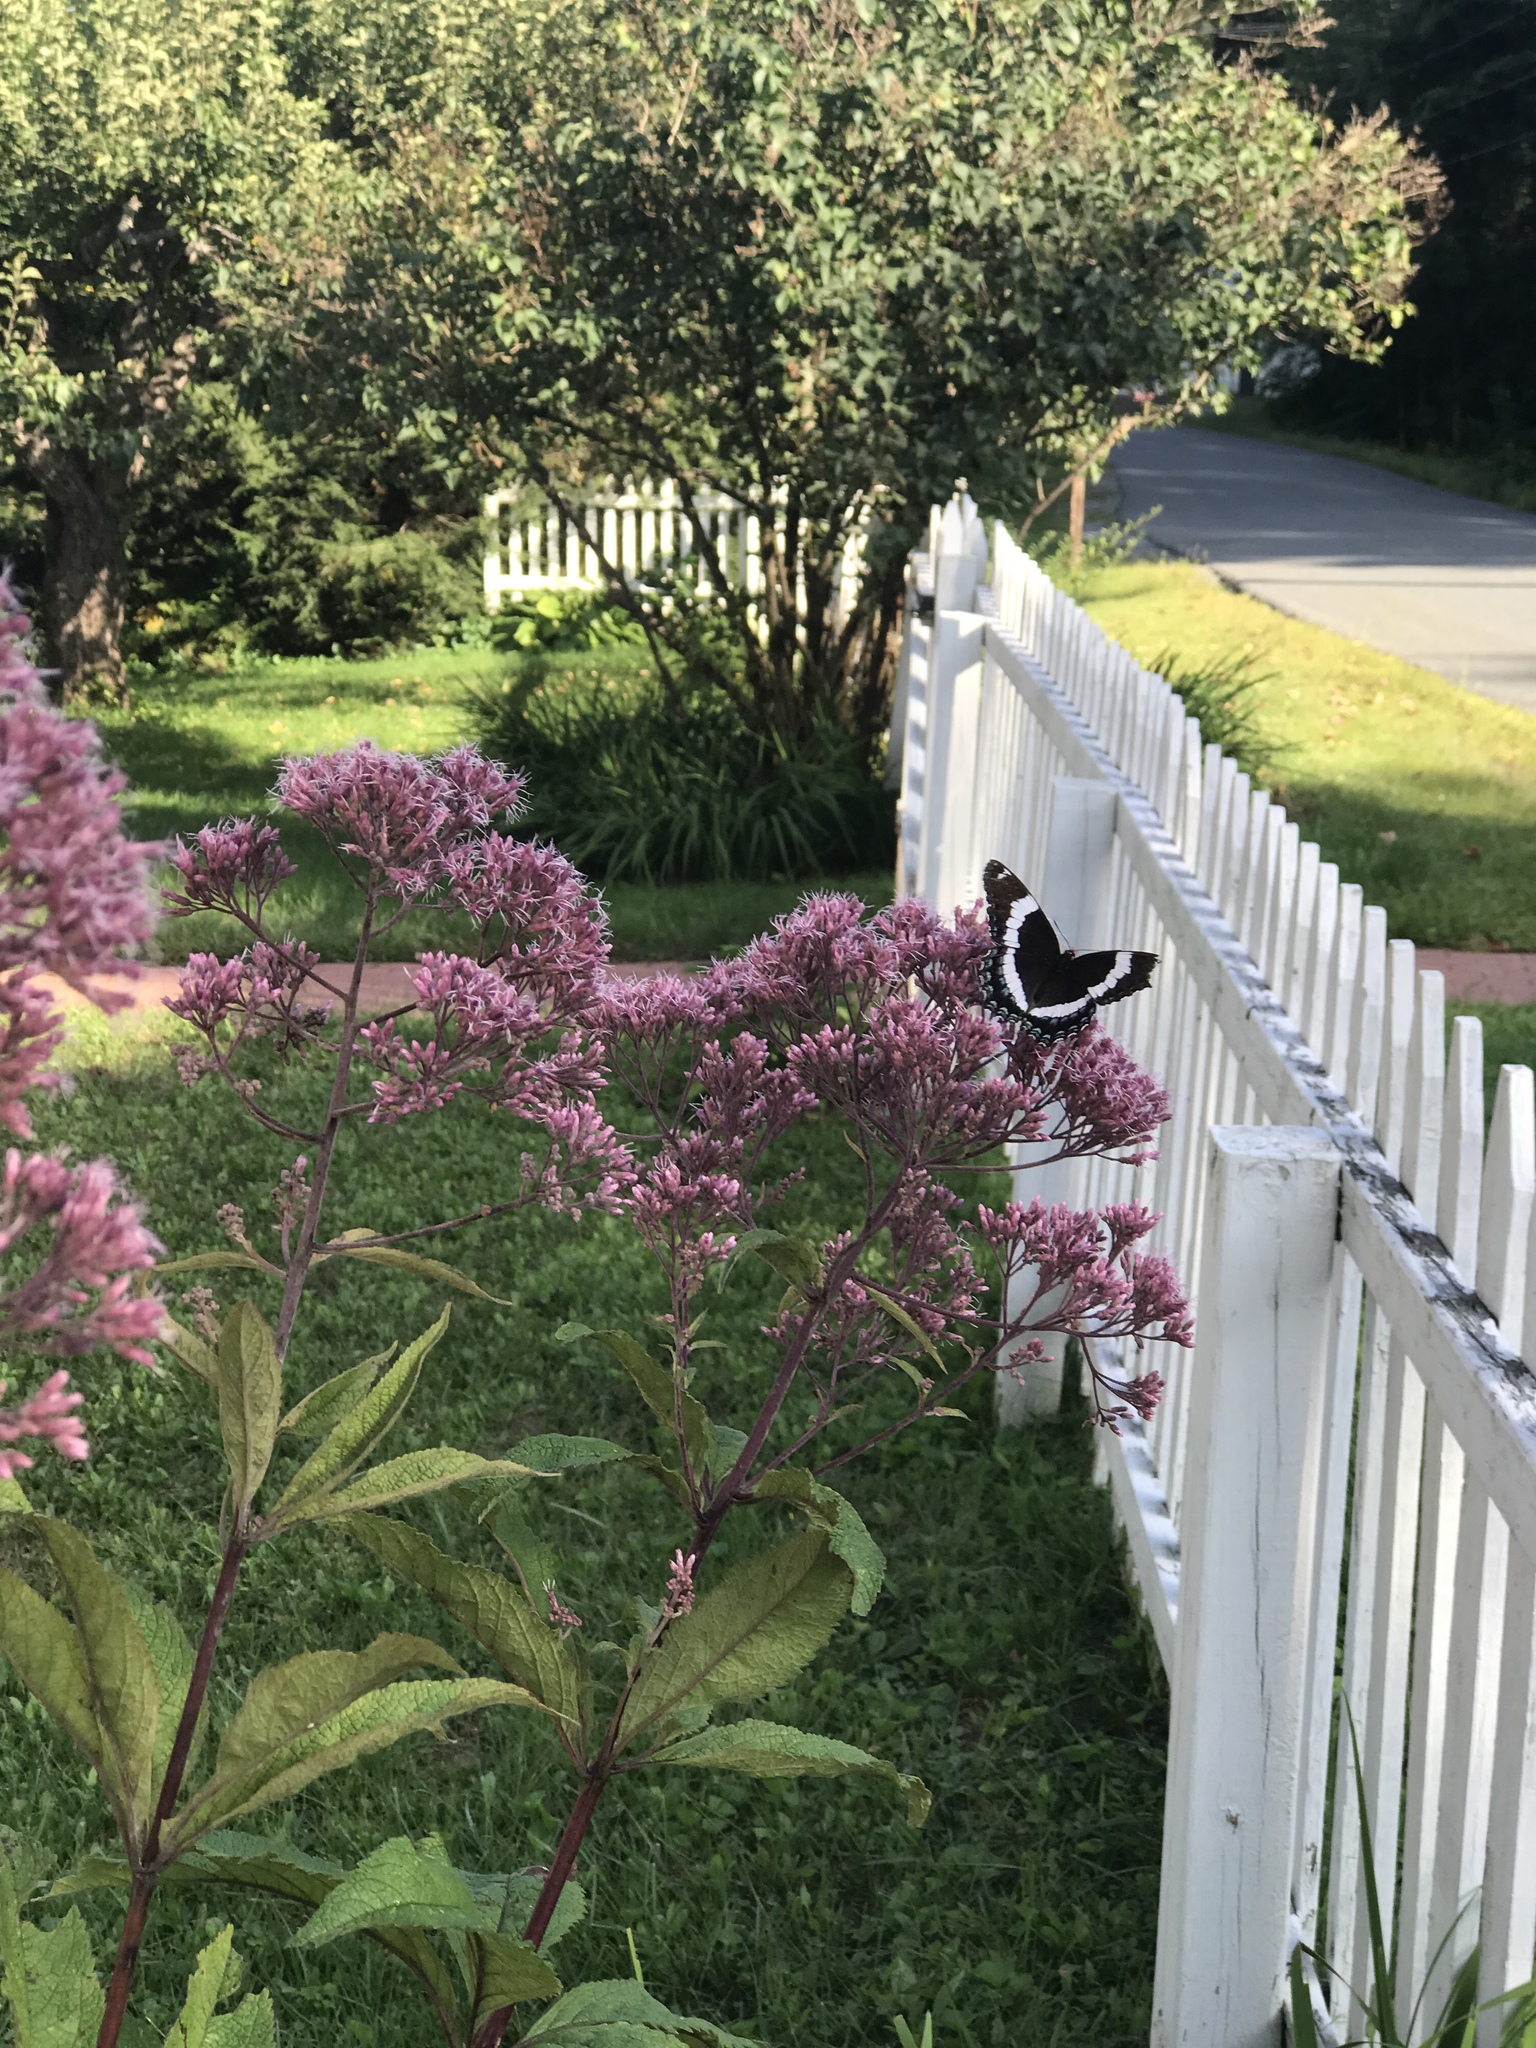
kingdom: Animalia
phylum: Arthropoda
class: Insecta
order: Lepidoptera
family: Nymphalidae
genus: Limenitis
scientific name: Limenitis arthemis
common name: Red-spotted admiral
